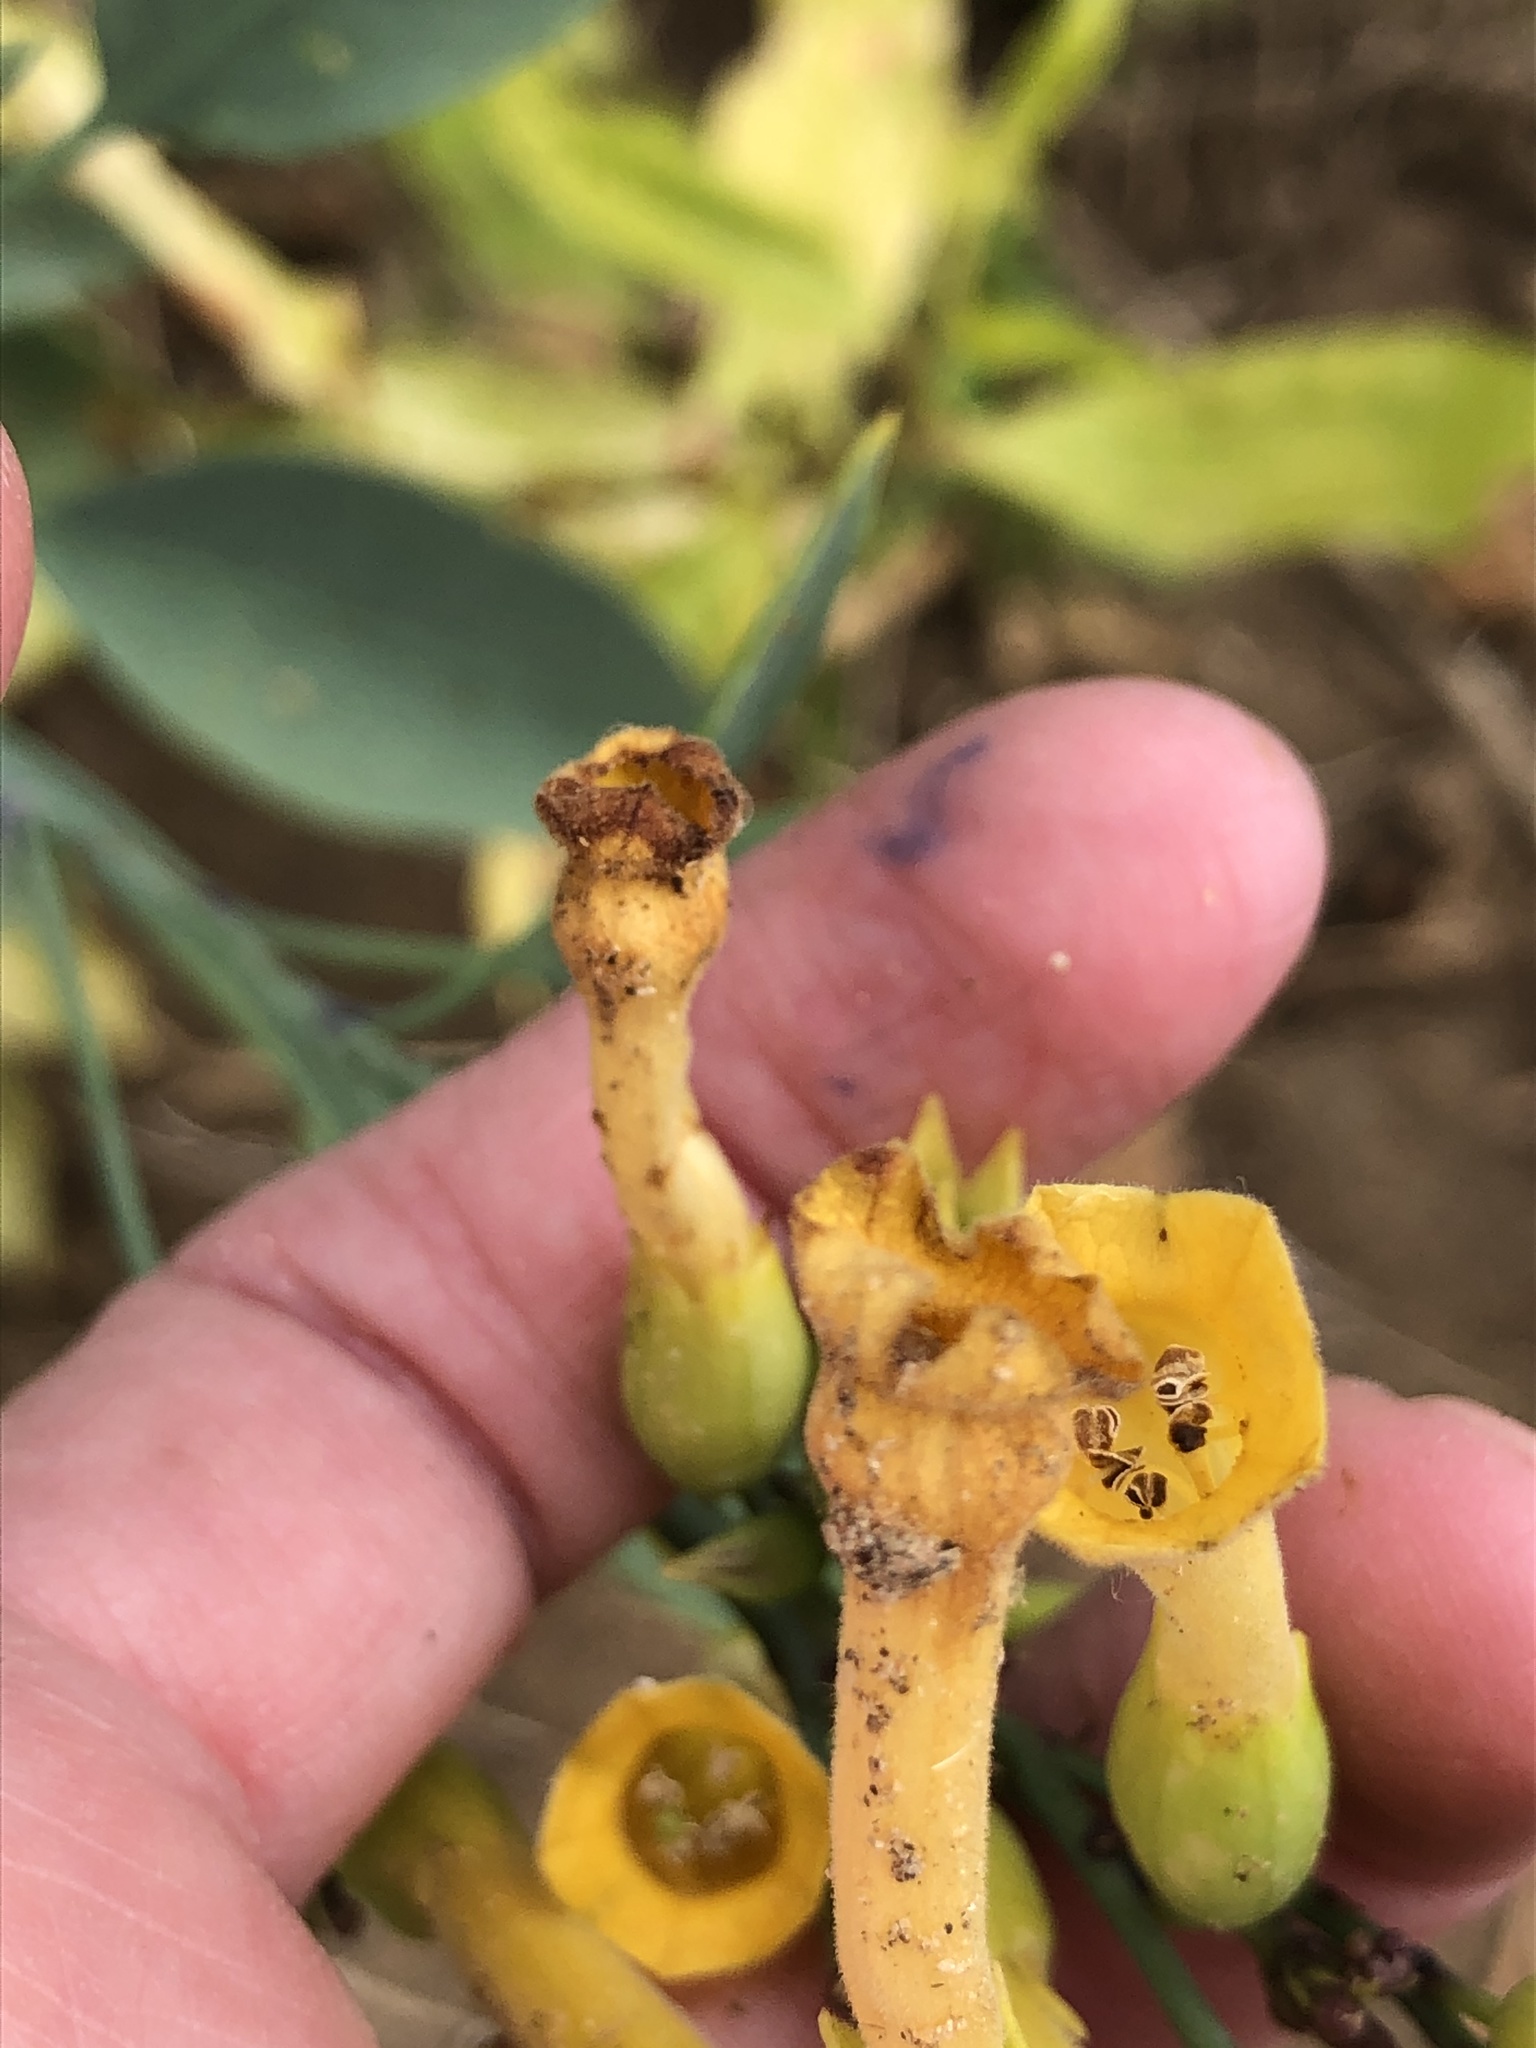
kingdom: Plantae
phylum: Tracheophyta
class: Magnoliopsida
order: Solanales
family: Solanaceae
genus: Nicotiana
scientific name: Nicotiana glauca
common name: Tree tobacco
